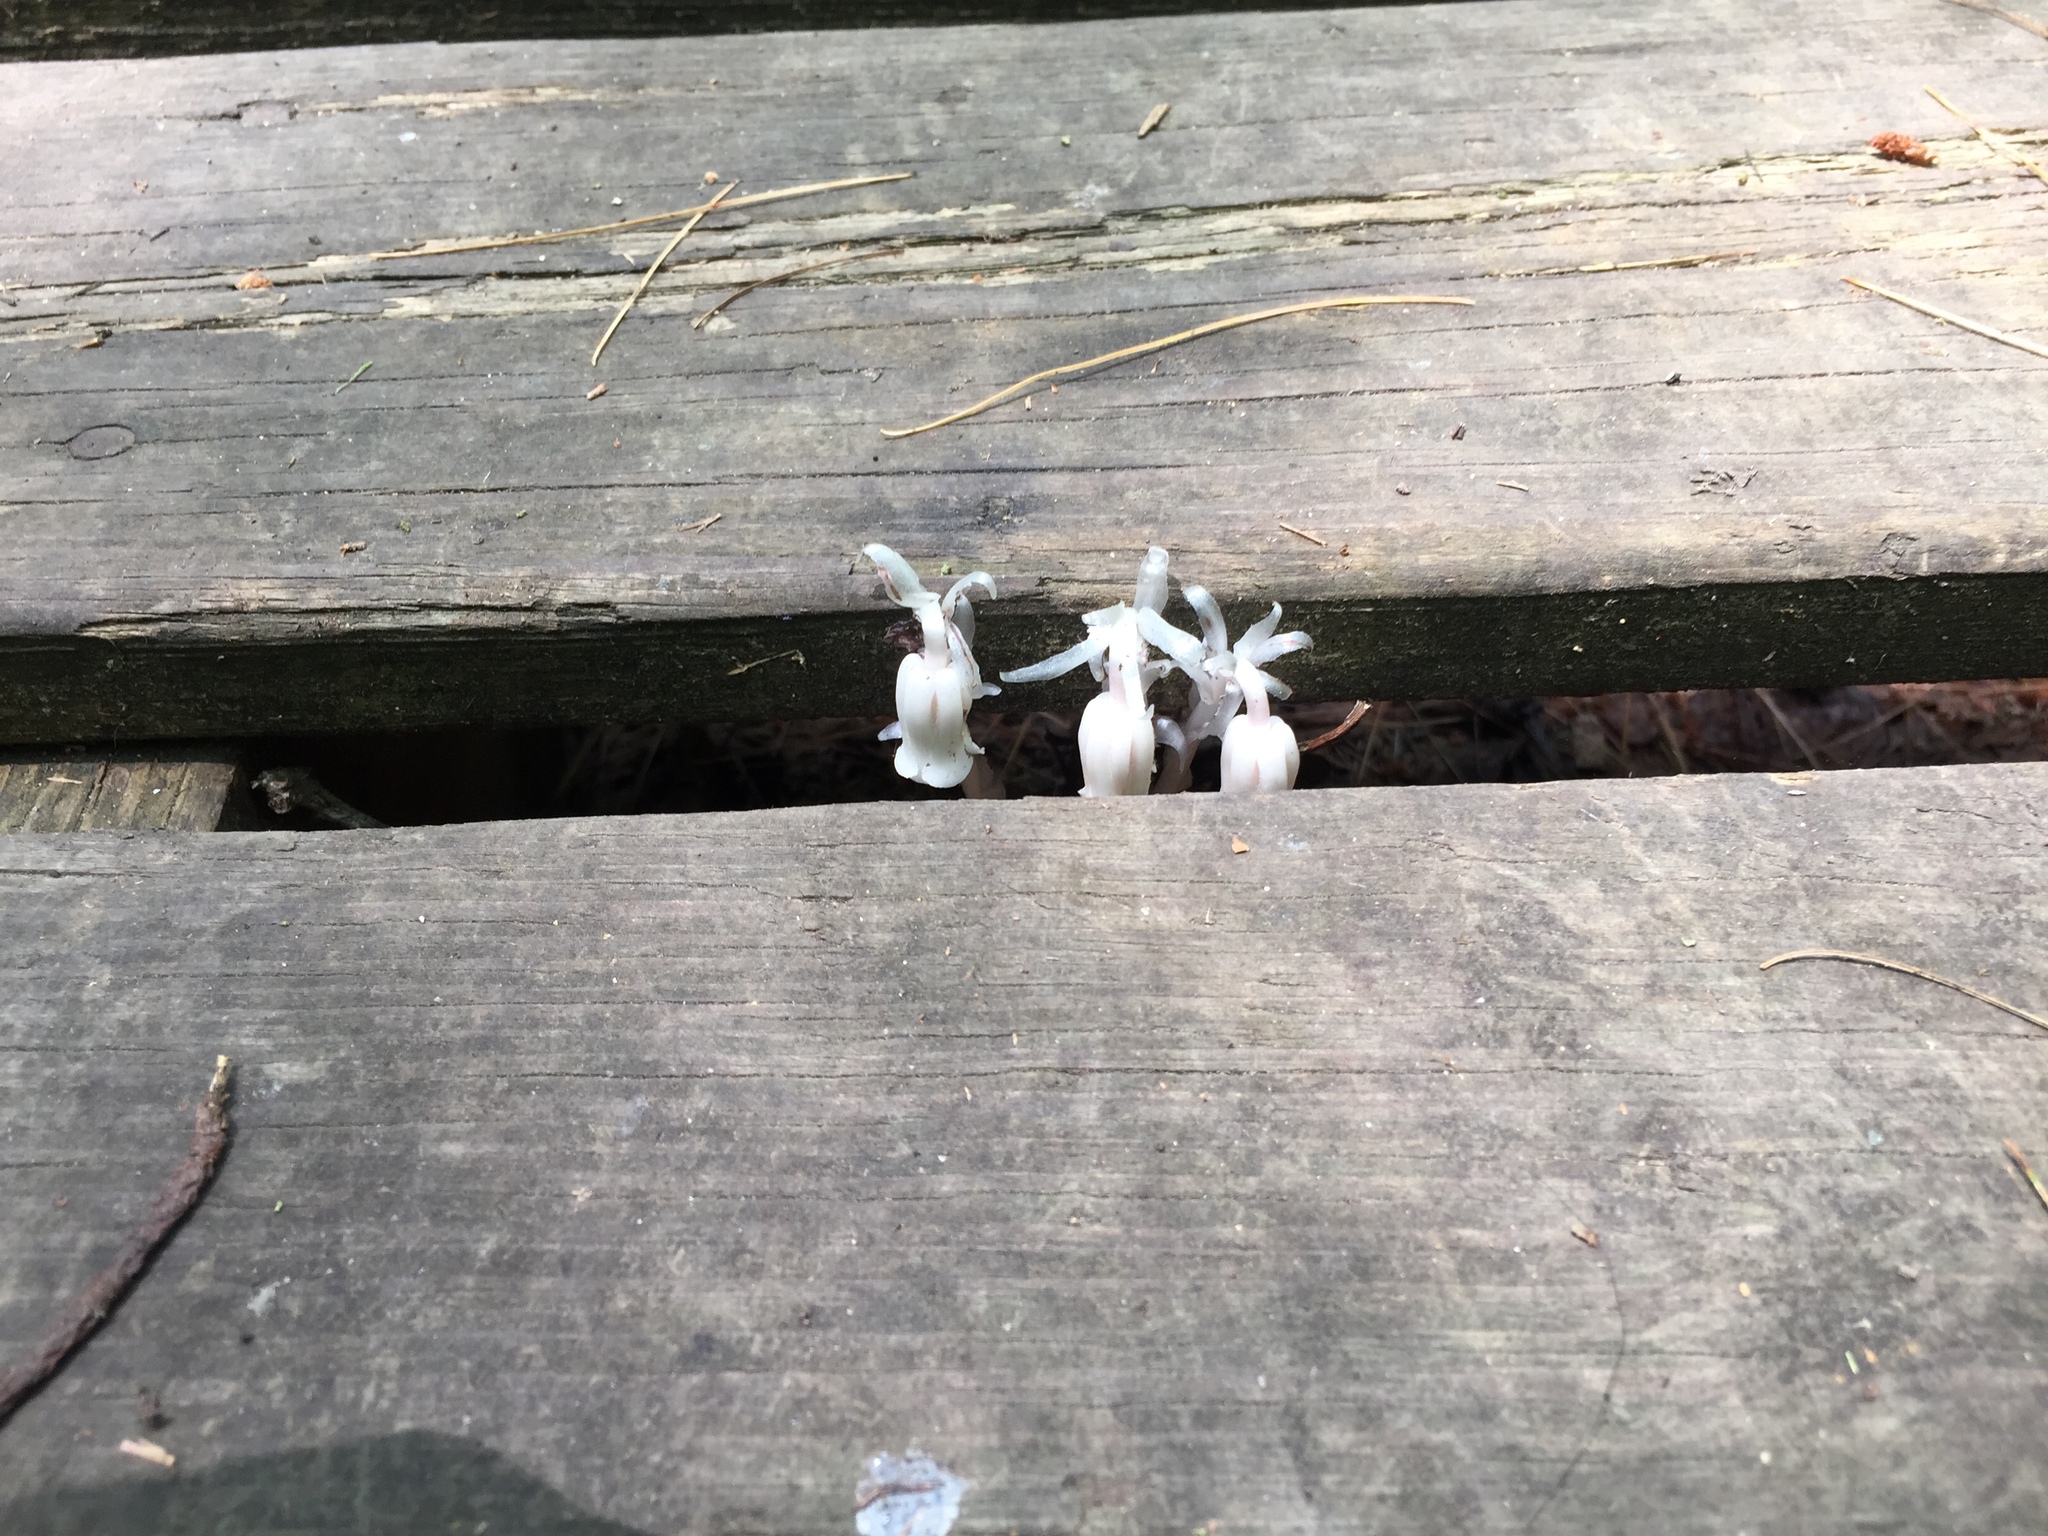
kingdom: Plantae
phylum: Tracheophyta
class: Magnoliopsida
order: Ericales
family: Ericaceae
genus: Monotropa
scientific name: Monotropa uniflora
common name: Convulsion root
